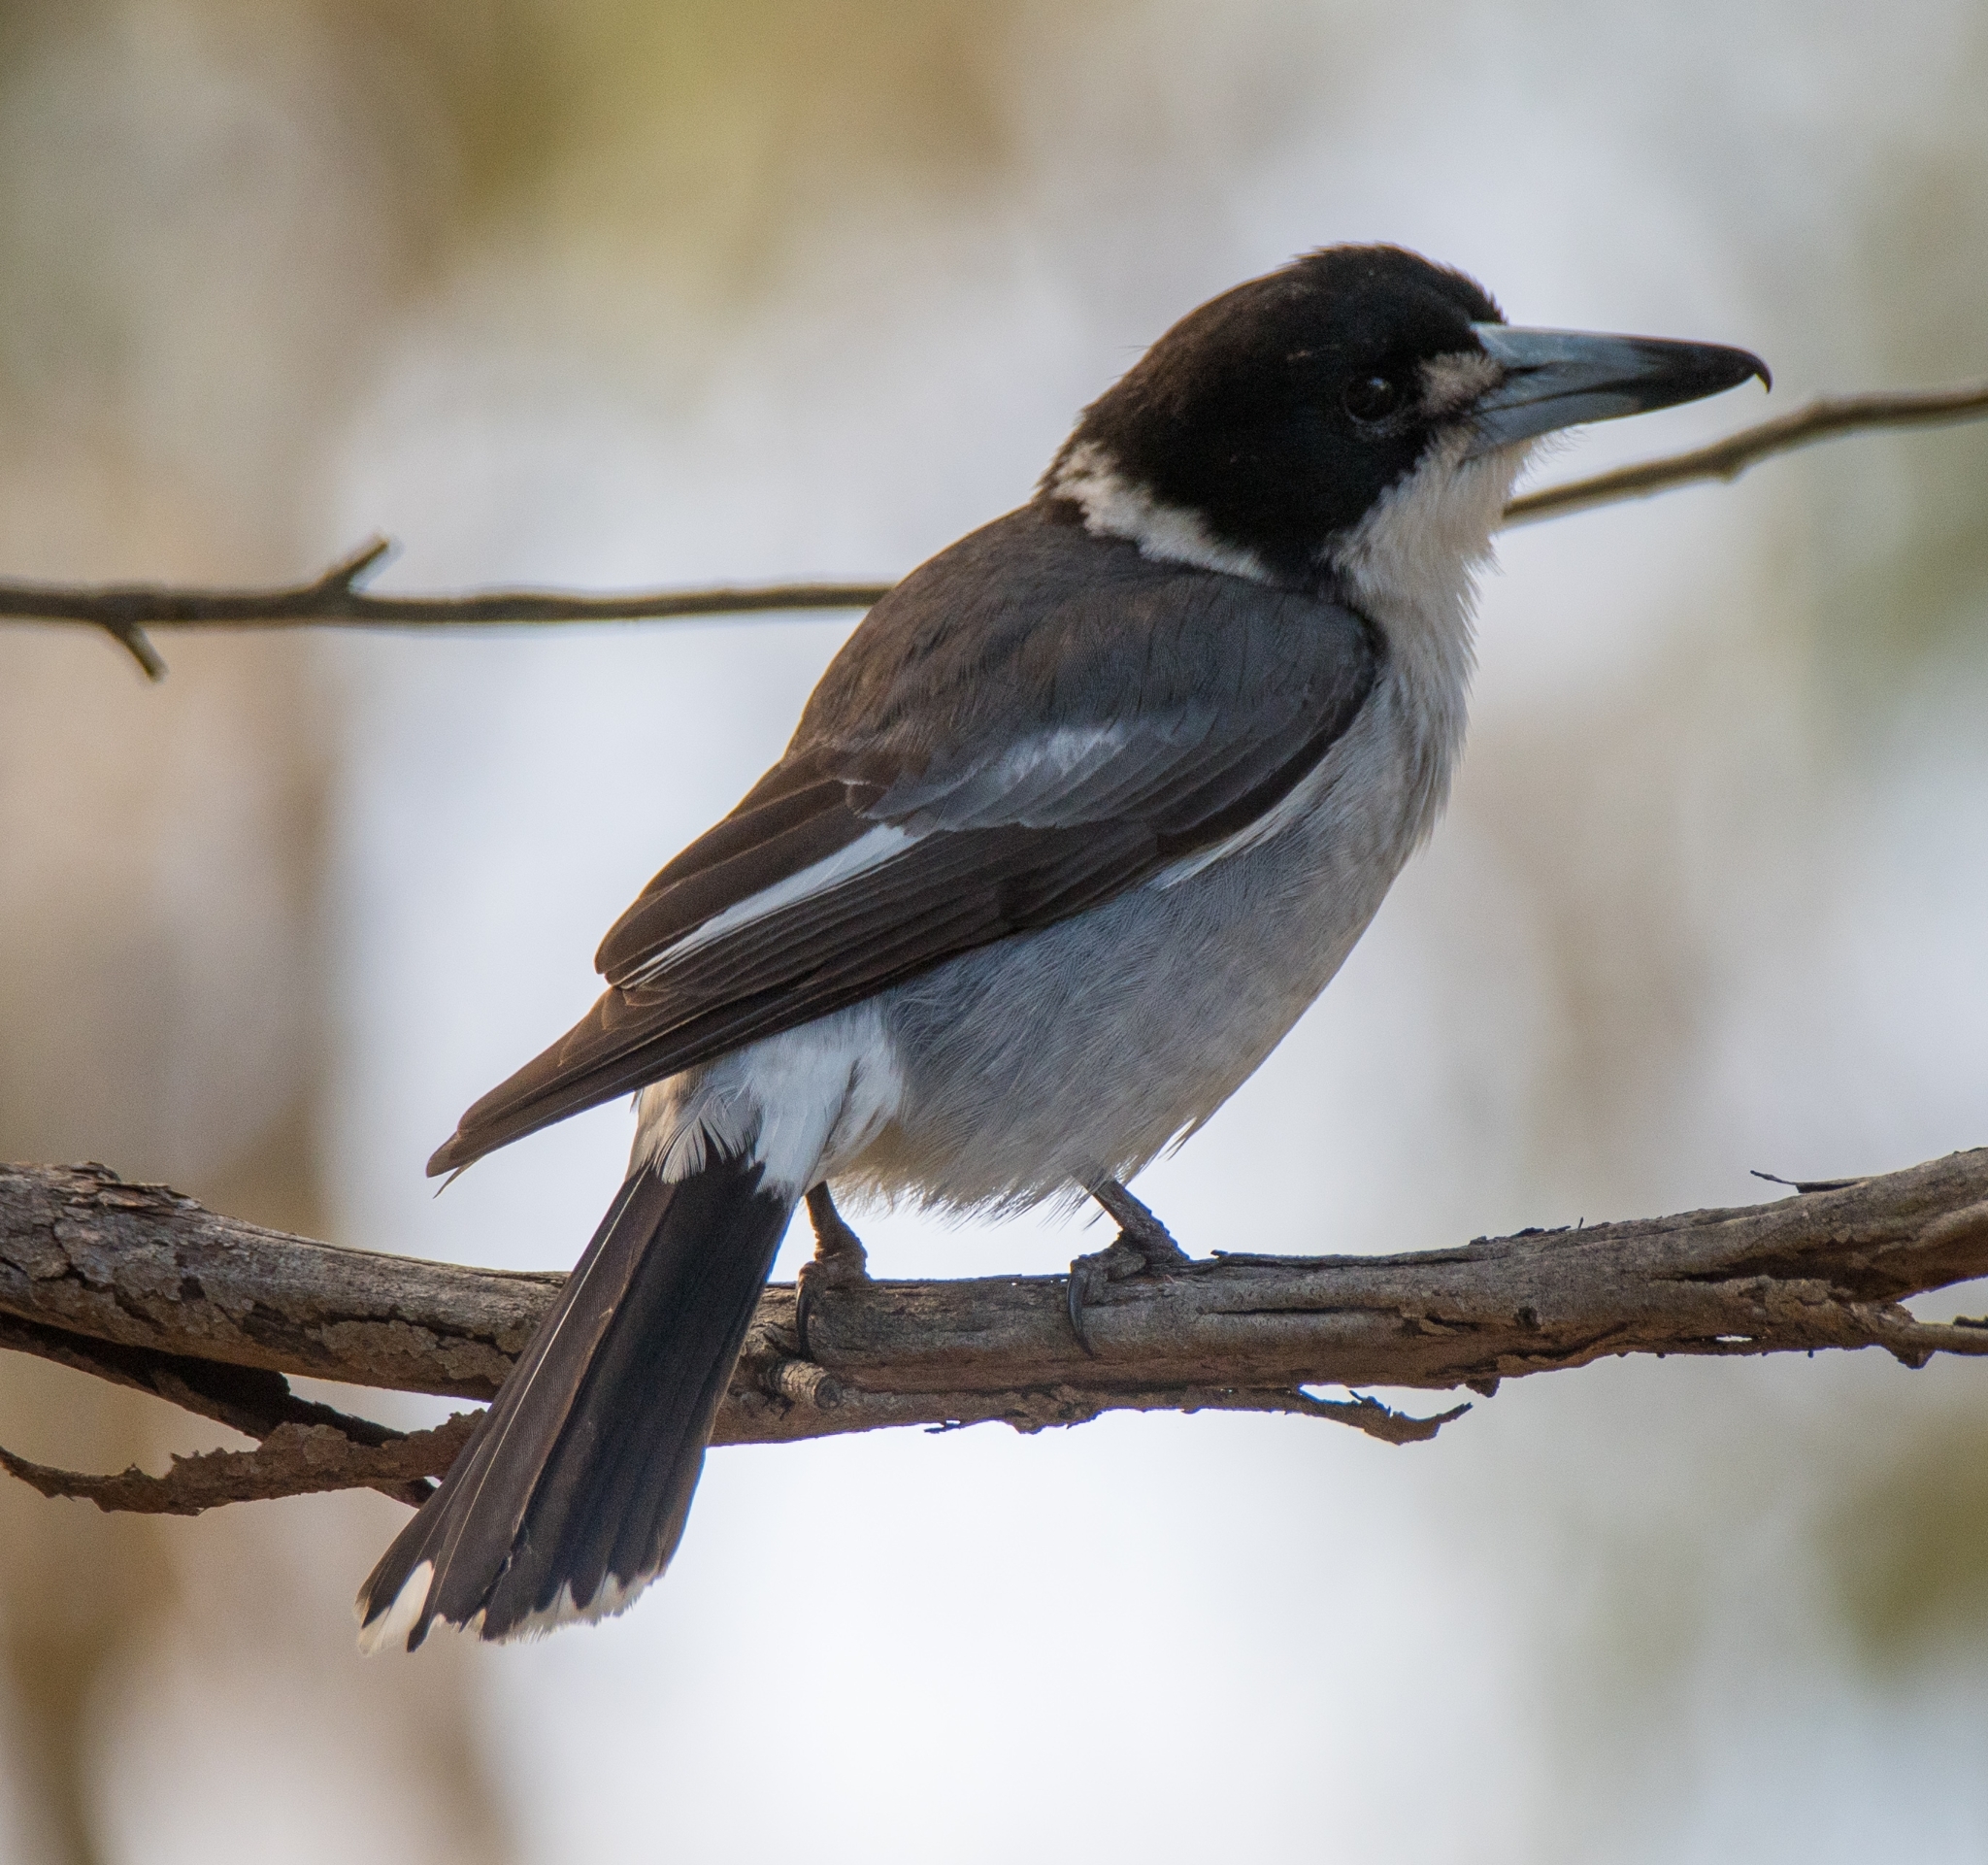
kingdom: Animalia
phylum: Chordata
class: Aves
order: Passeriformes
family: Cracticidae
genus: Cracticus
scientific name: Cracticus torquatus
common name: Grey butcherbird
